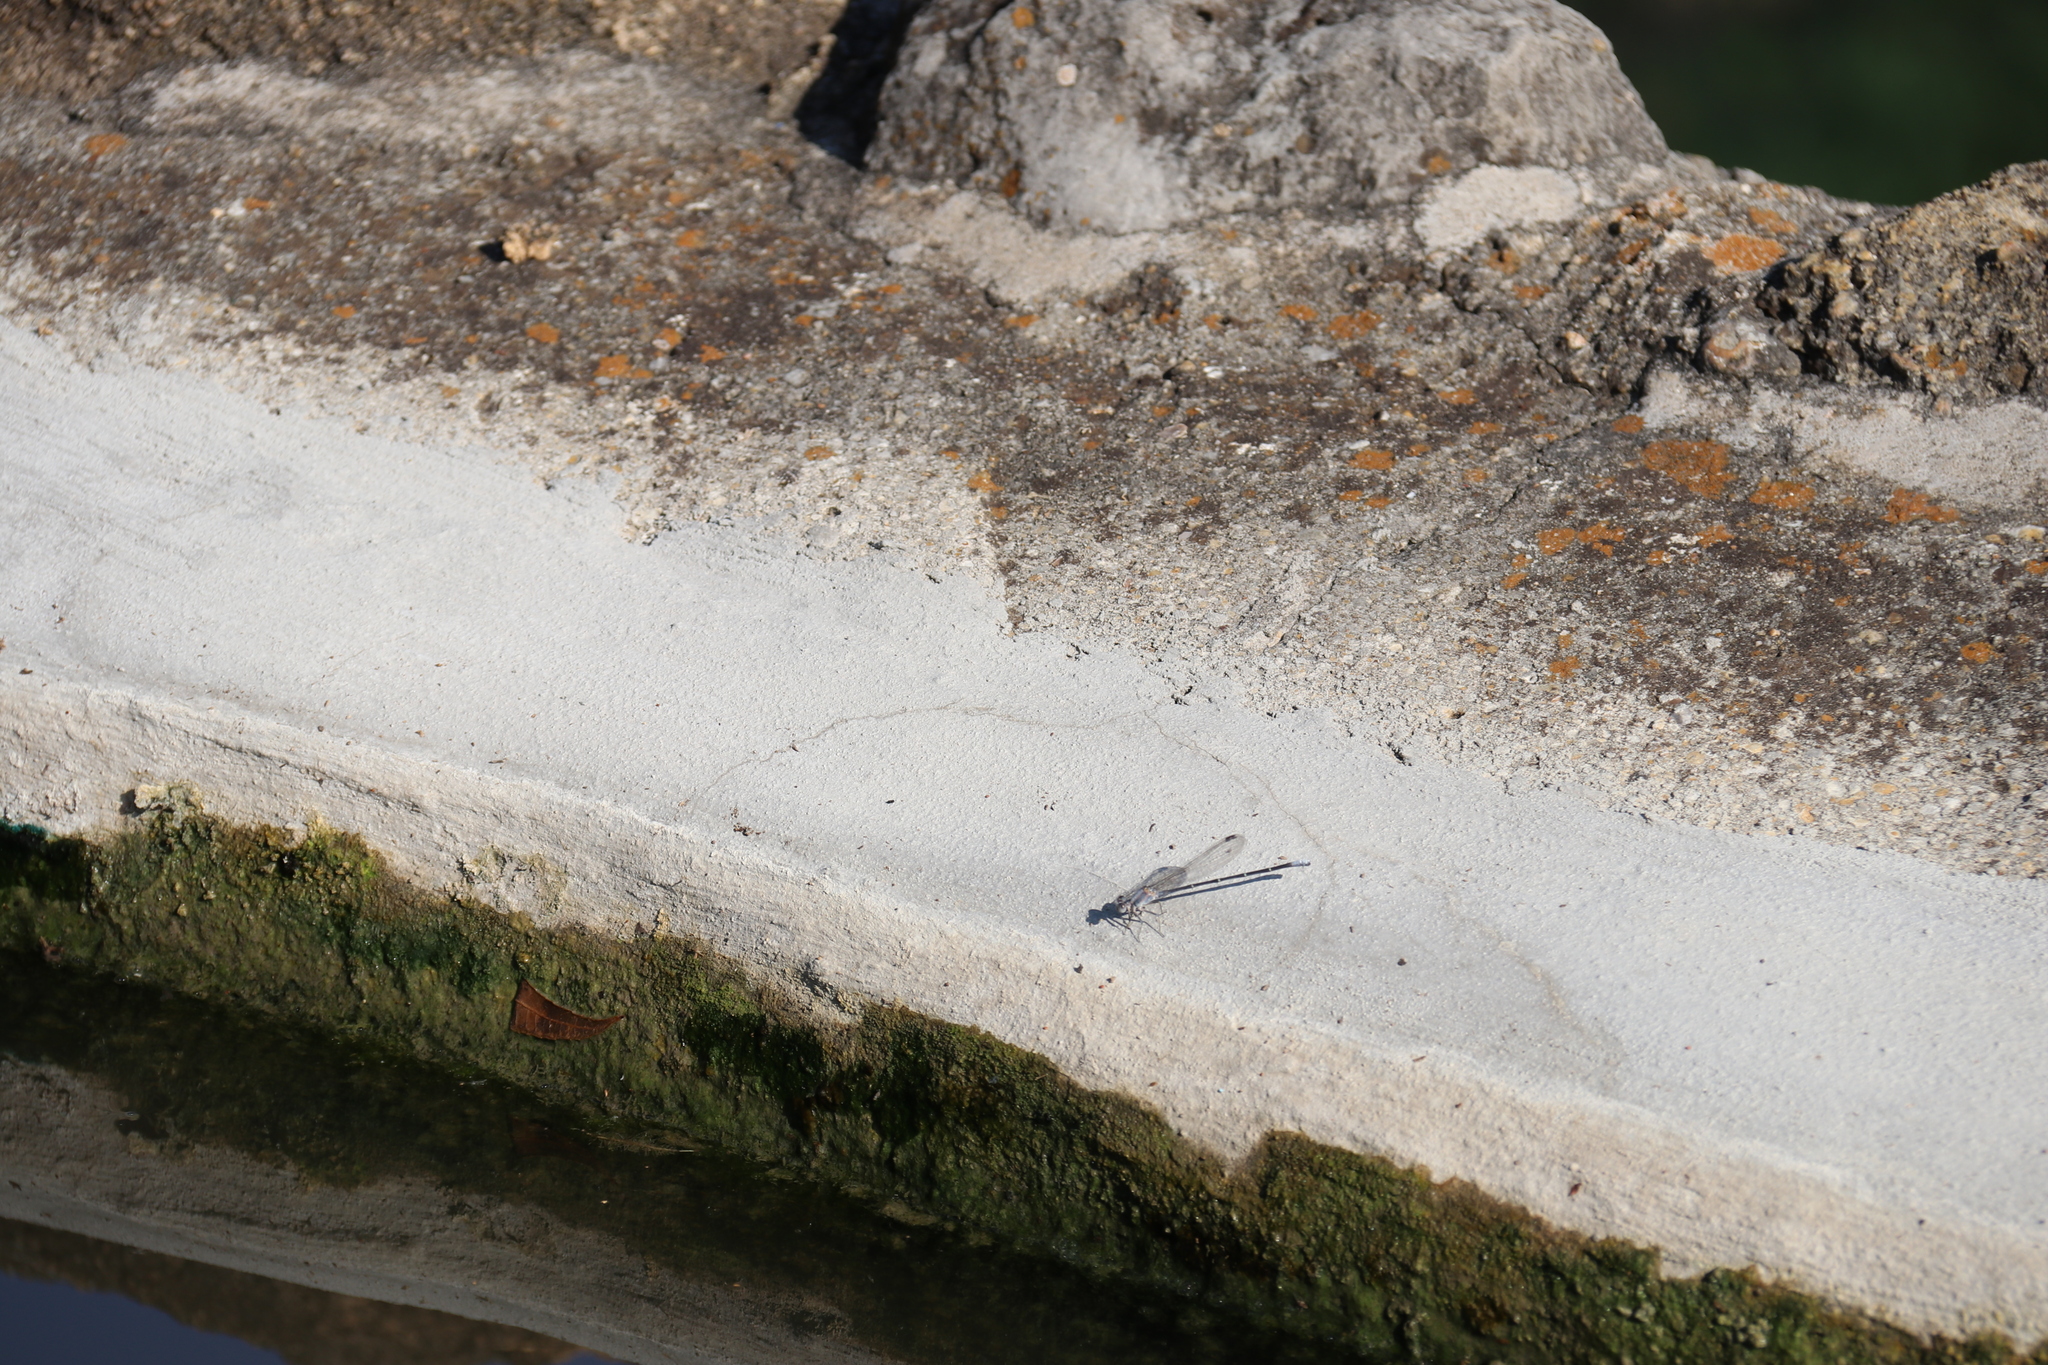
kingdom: Animalia
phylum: Arthropoda
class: Insecta
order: Odonata
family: Coenagrionidae
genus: Argia
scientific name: Argia moesta
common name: Powdered dancer
